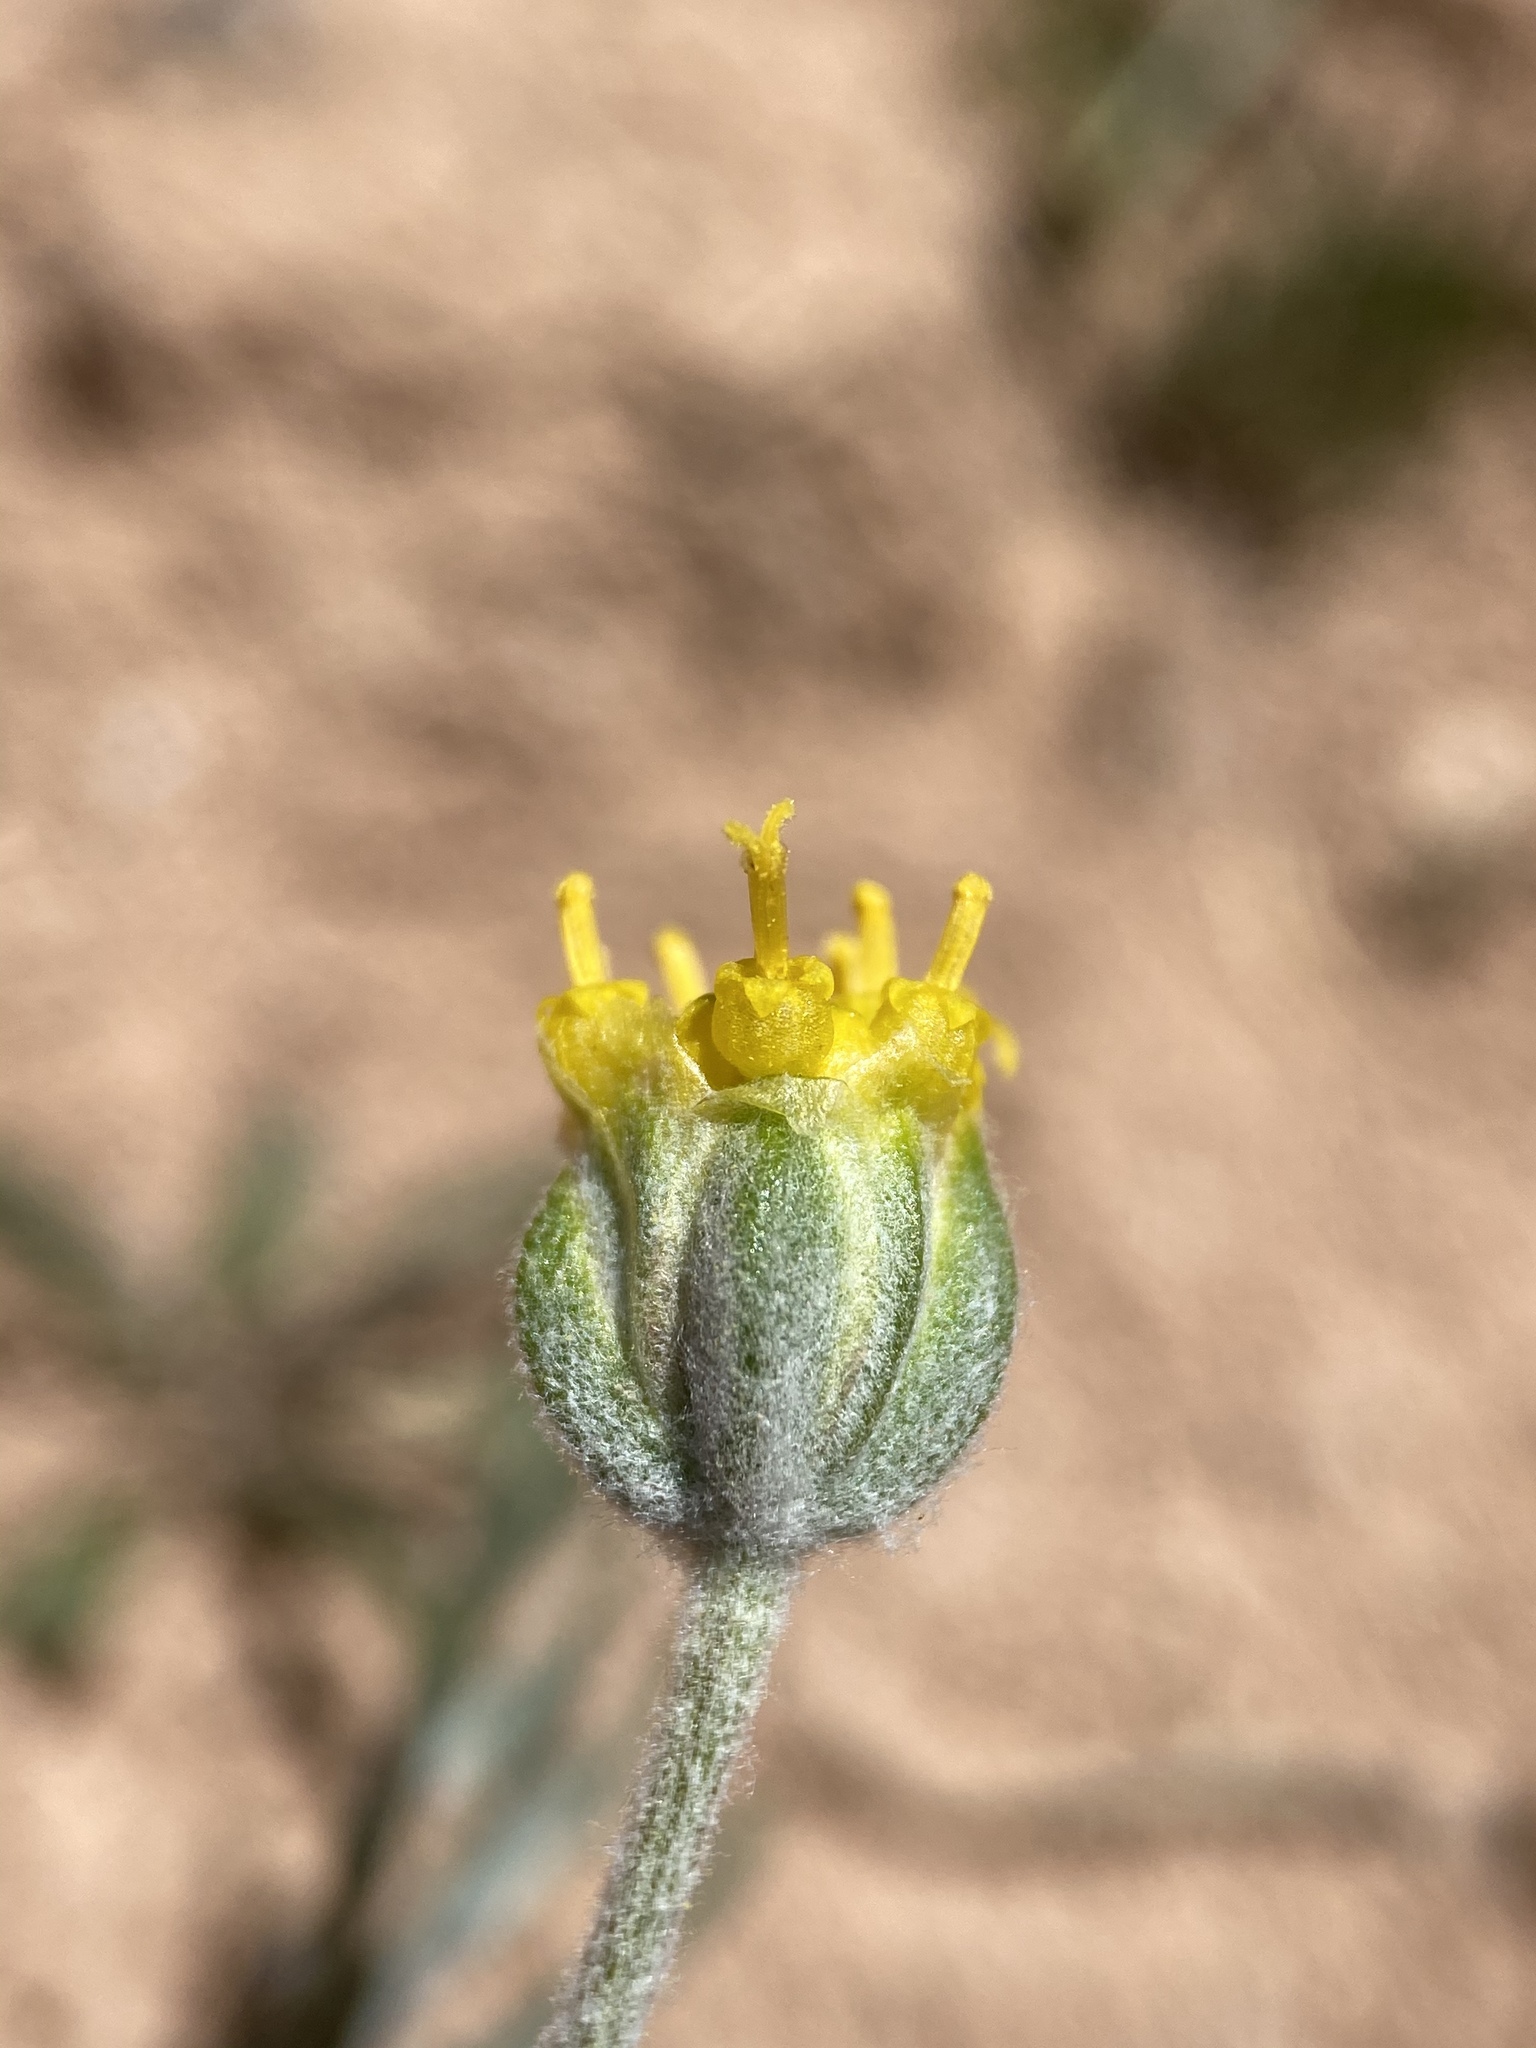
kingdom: Plantae
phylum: Tracheophyta
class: Magnoliopsida
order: Asterales
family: Asteraceae
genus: Hymenopappus
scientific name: Hymenopappus filifolius
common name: Columbia cutleaf
